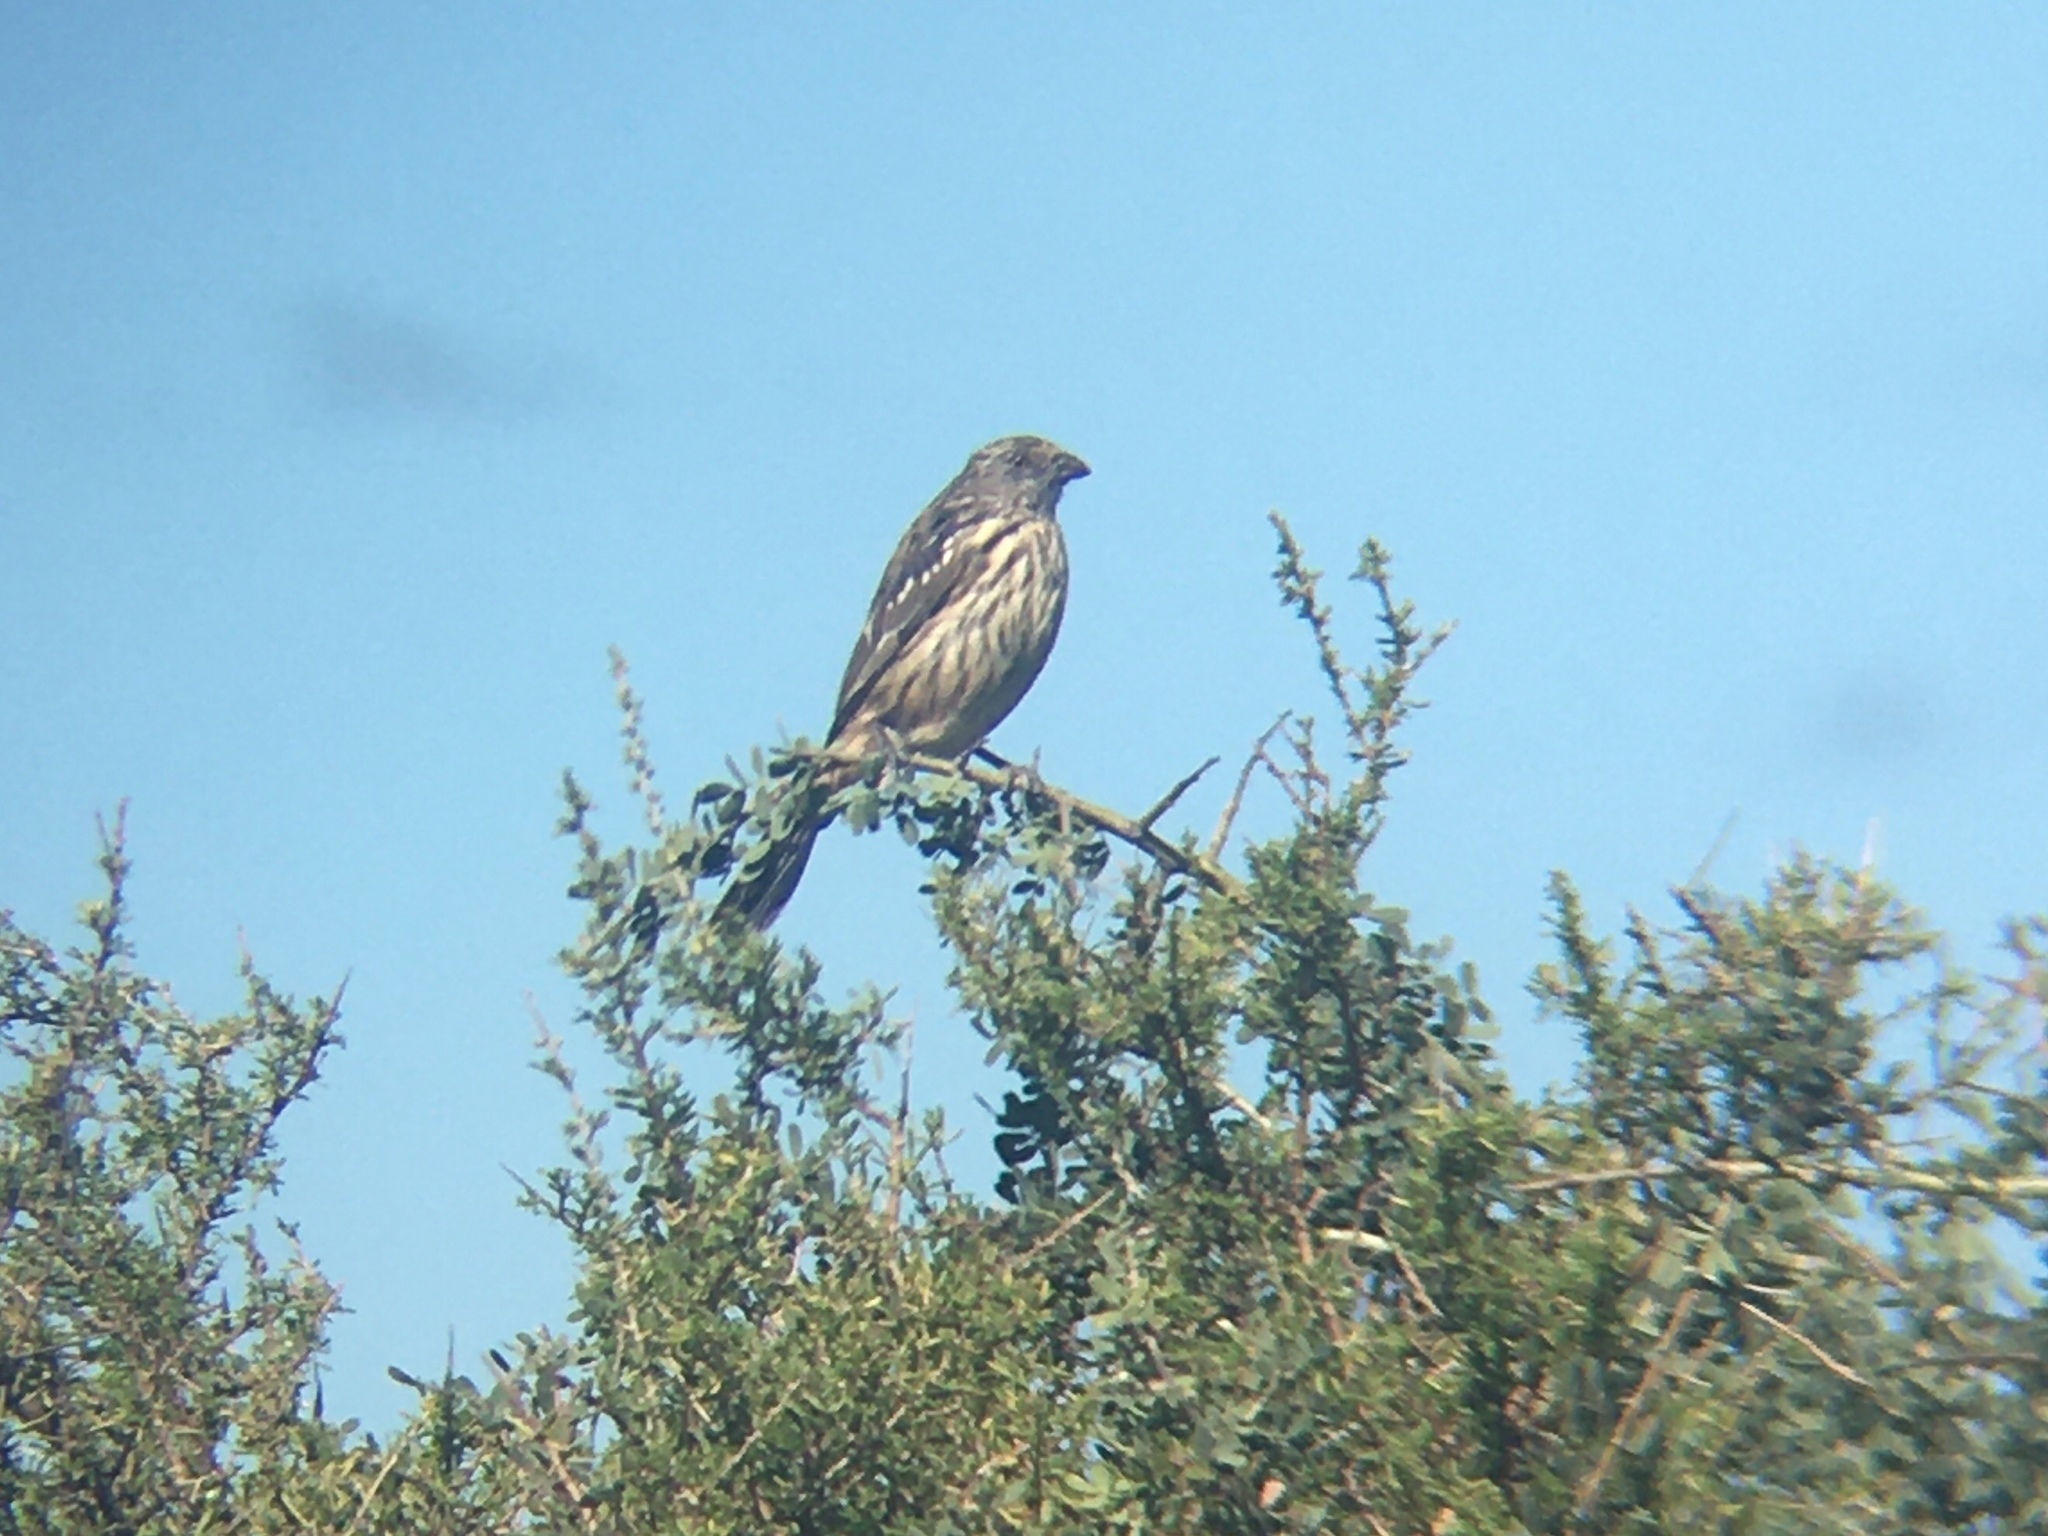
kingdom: Animalia
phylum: Chordata
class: Aves
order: Passeriformes
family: Cotingidae
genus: Phytotoma
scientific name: Phytotoma rutila
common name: White-tipped plantcutter
